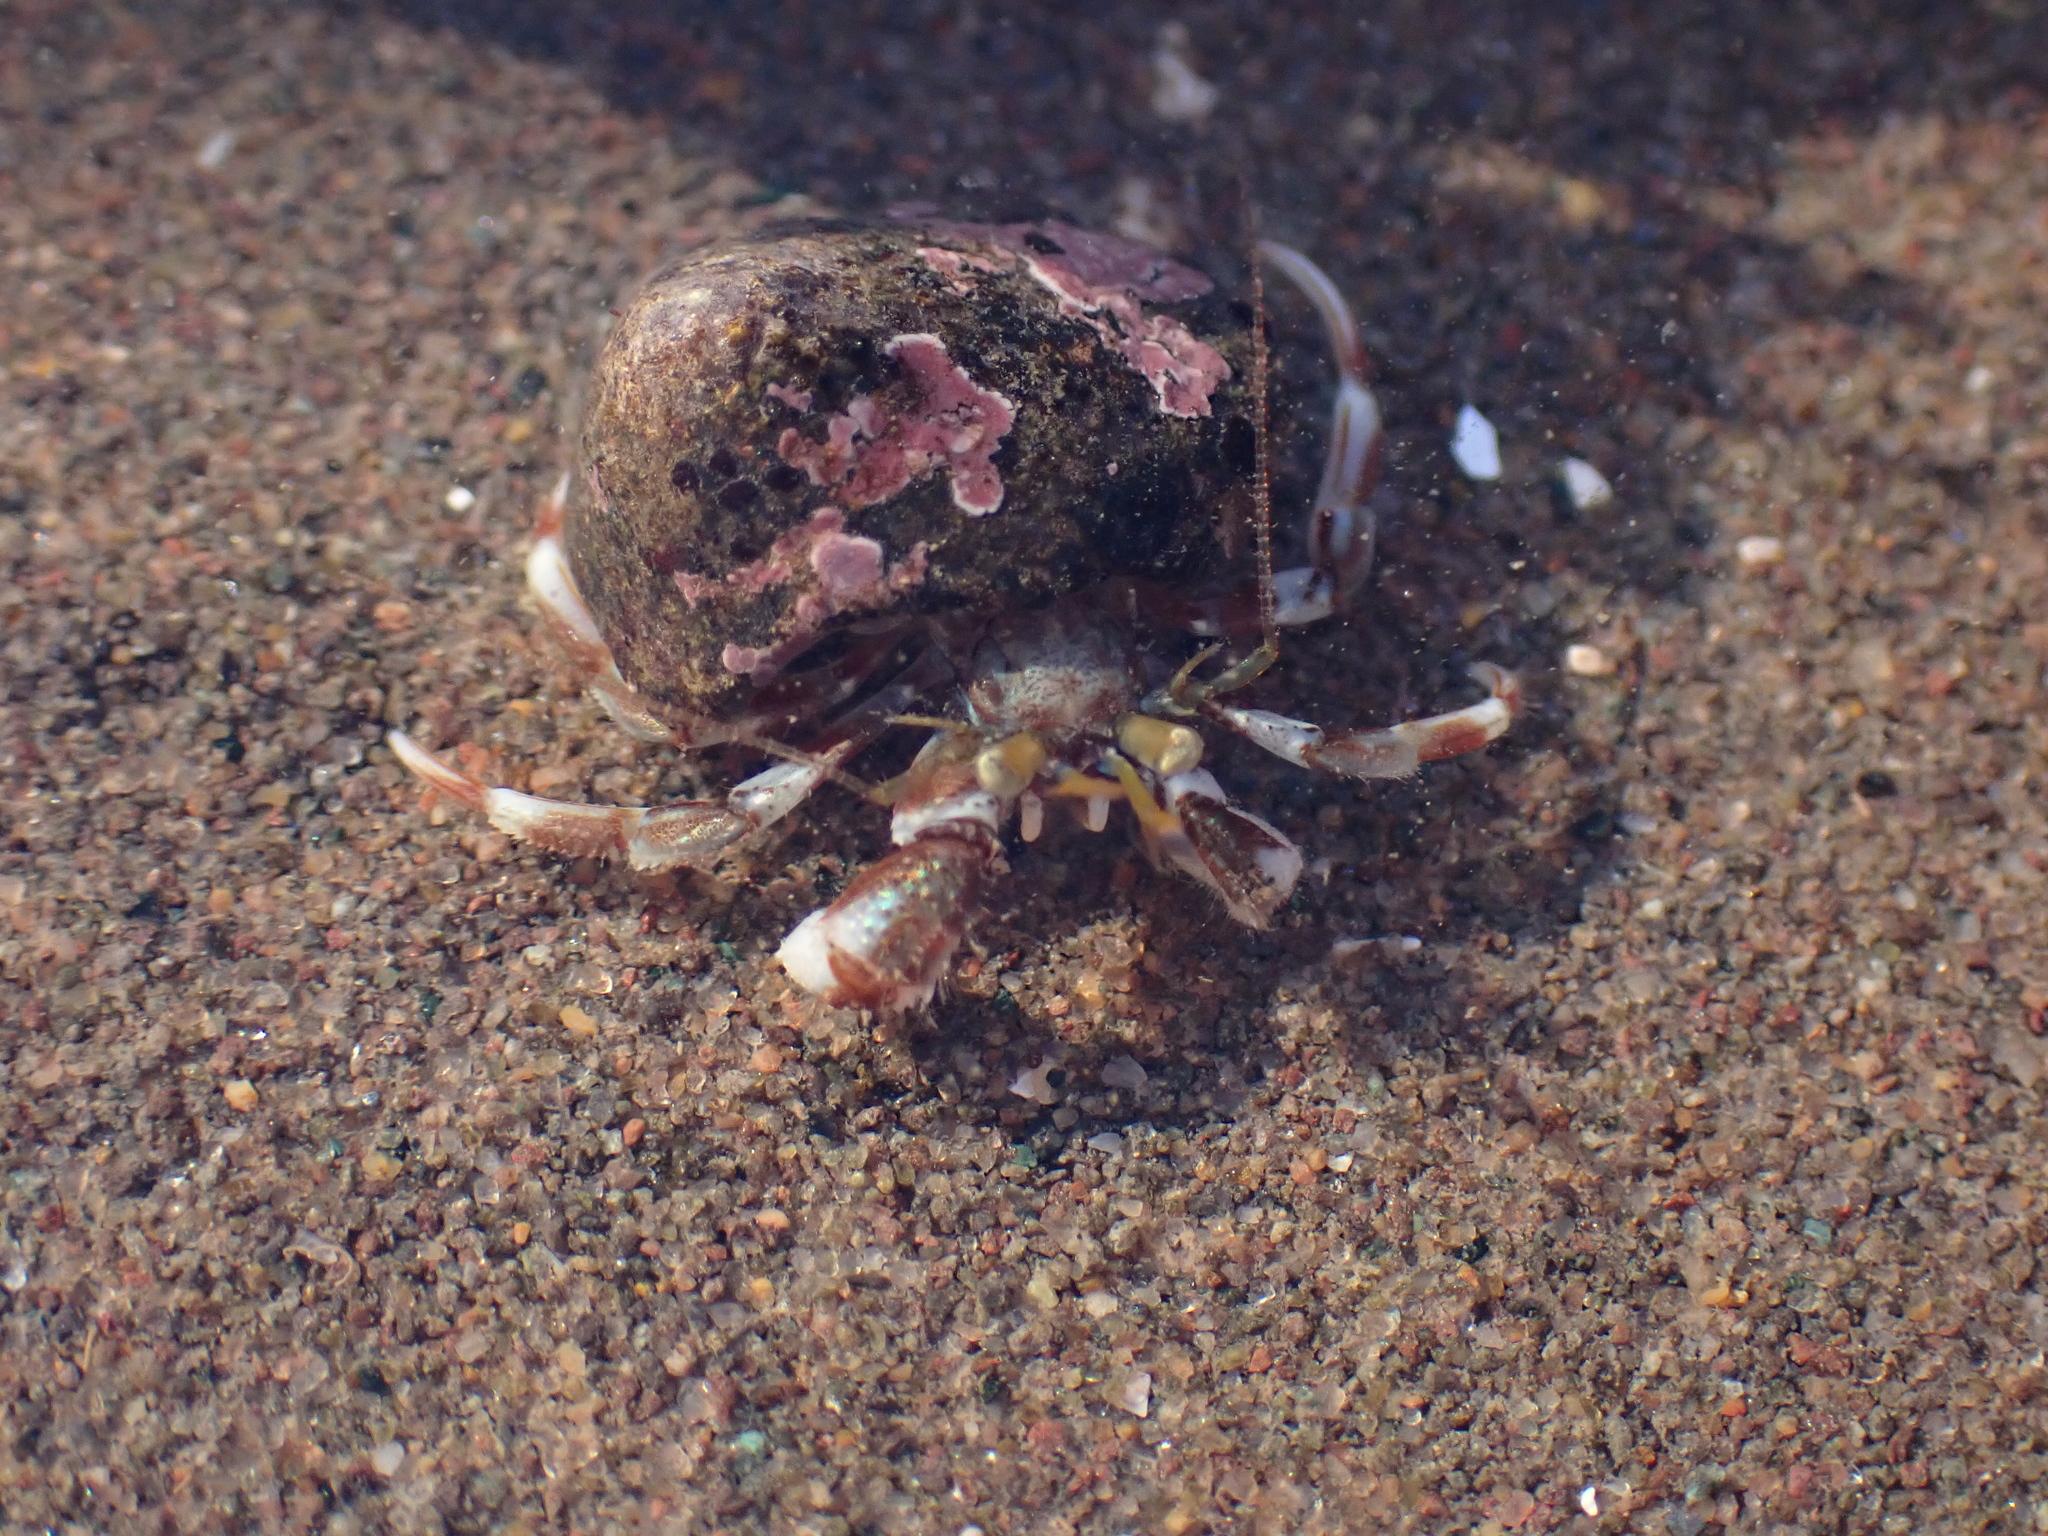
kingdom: Animalia
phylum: Arthropoda
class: Malacostraca
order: Decapoda
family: Paguridae
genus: Pagurus
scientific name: Pagurus acadianus
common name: Acadian hermit crab
